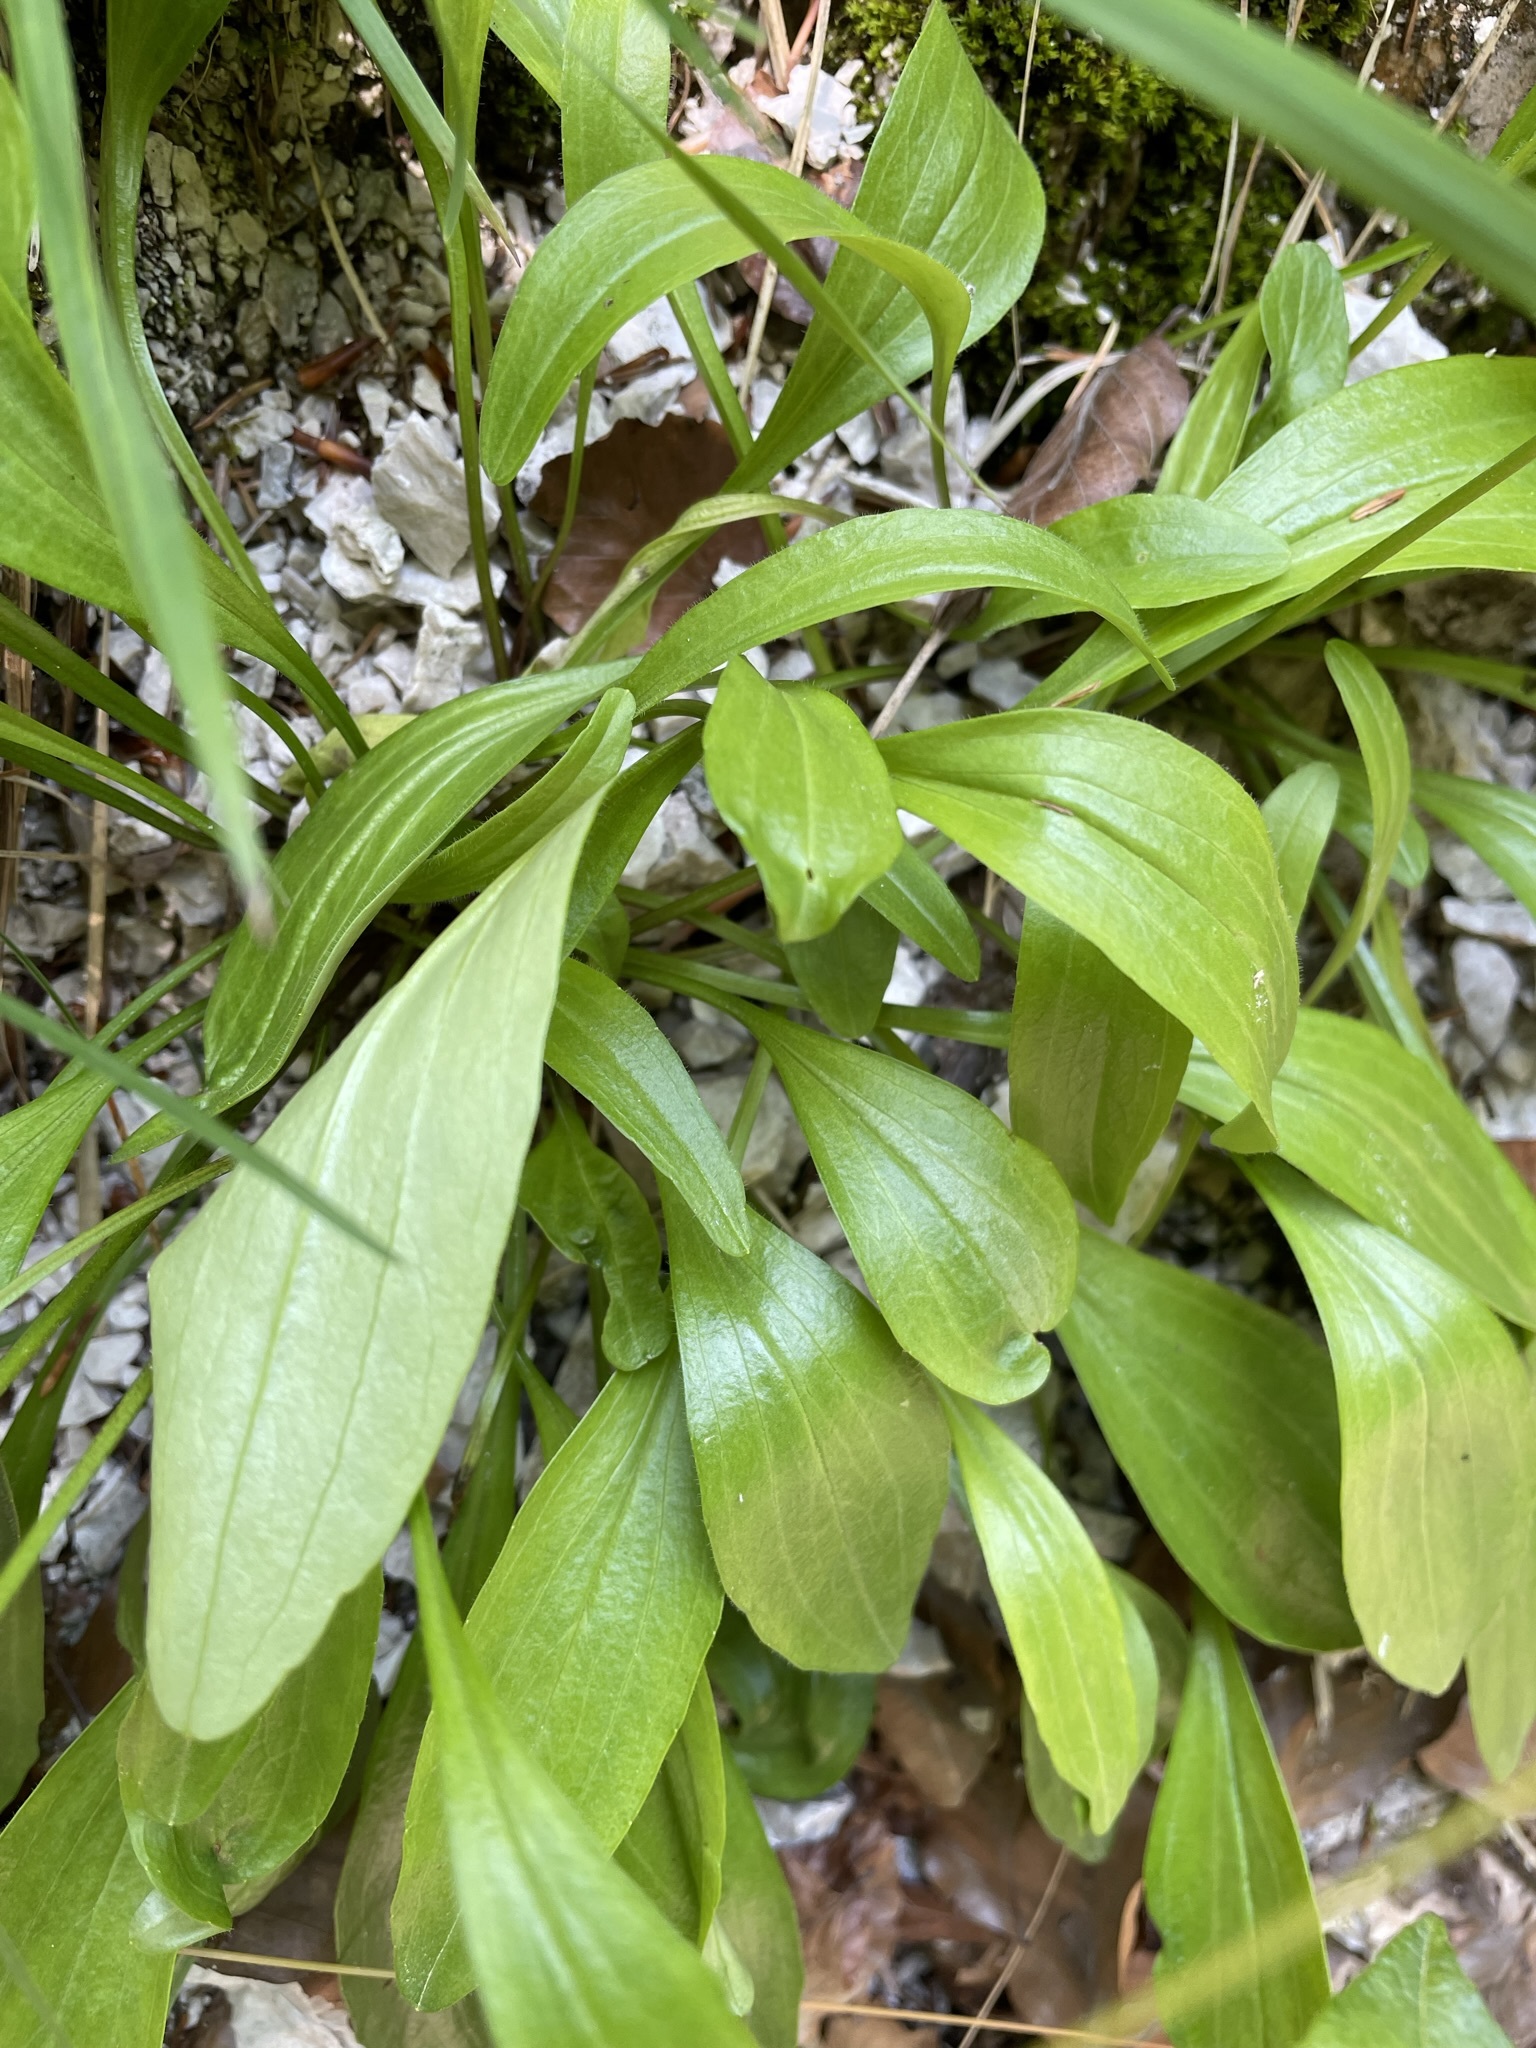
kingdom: Plantae
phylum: Tracheophyta
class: Magnoliopsida
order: Dipsacales
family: Caprifoliaceae
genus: Valeriana
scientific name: Valeriana saxatilis
